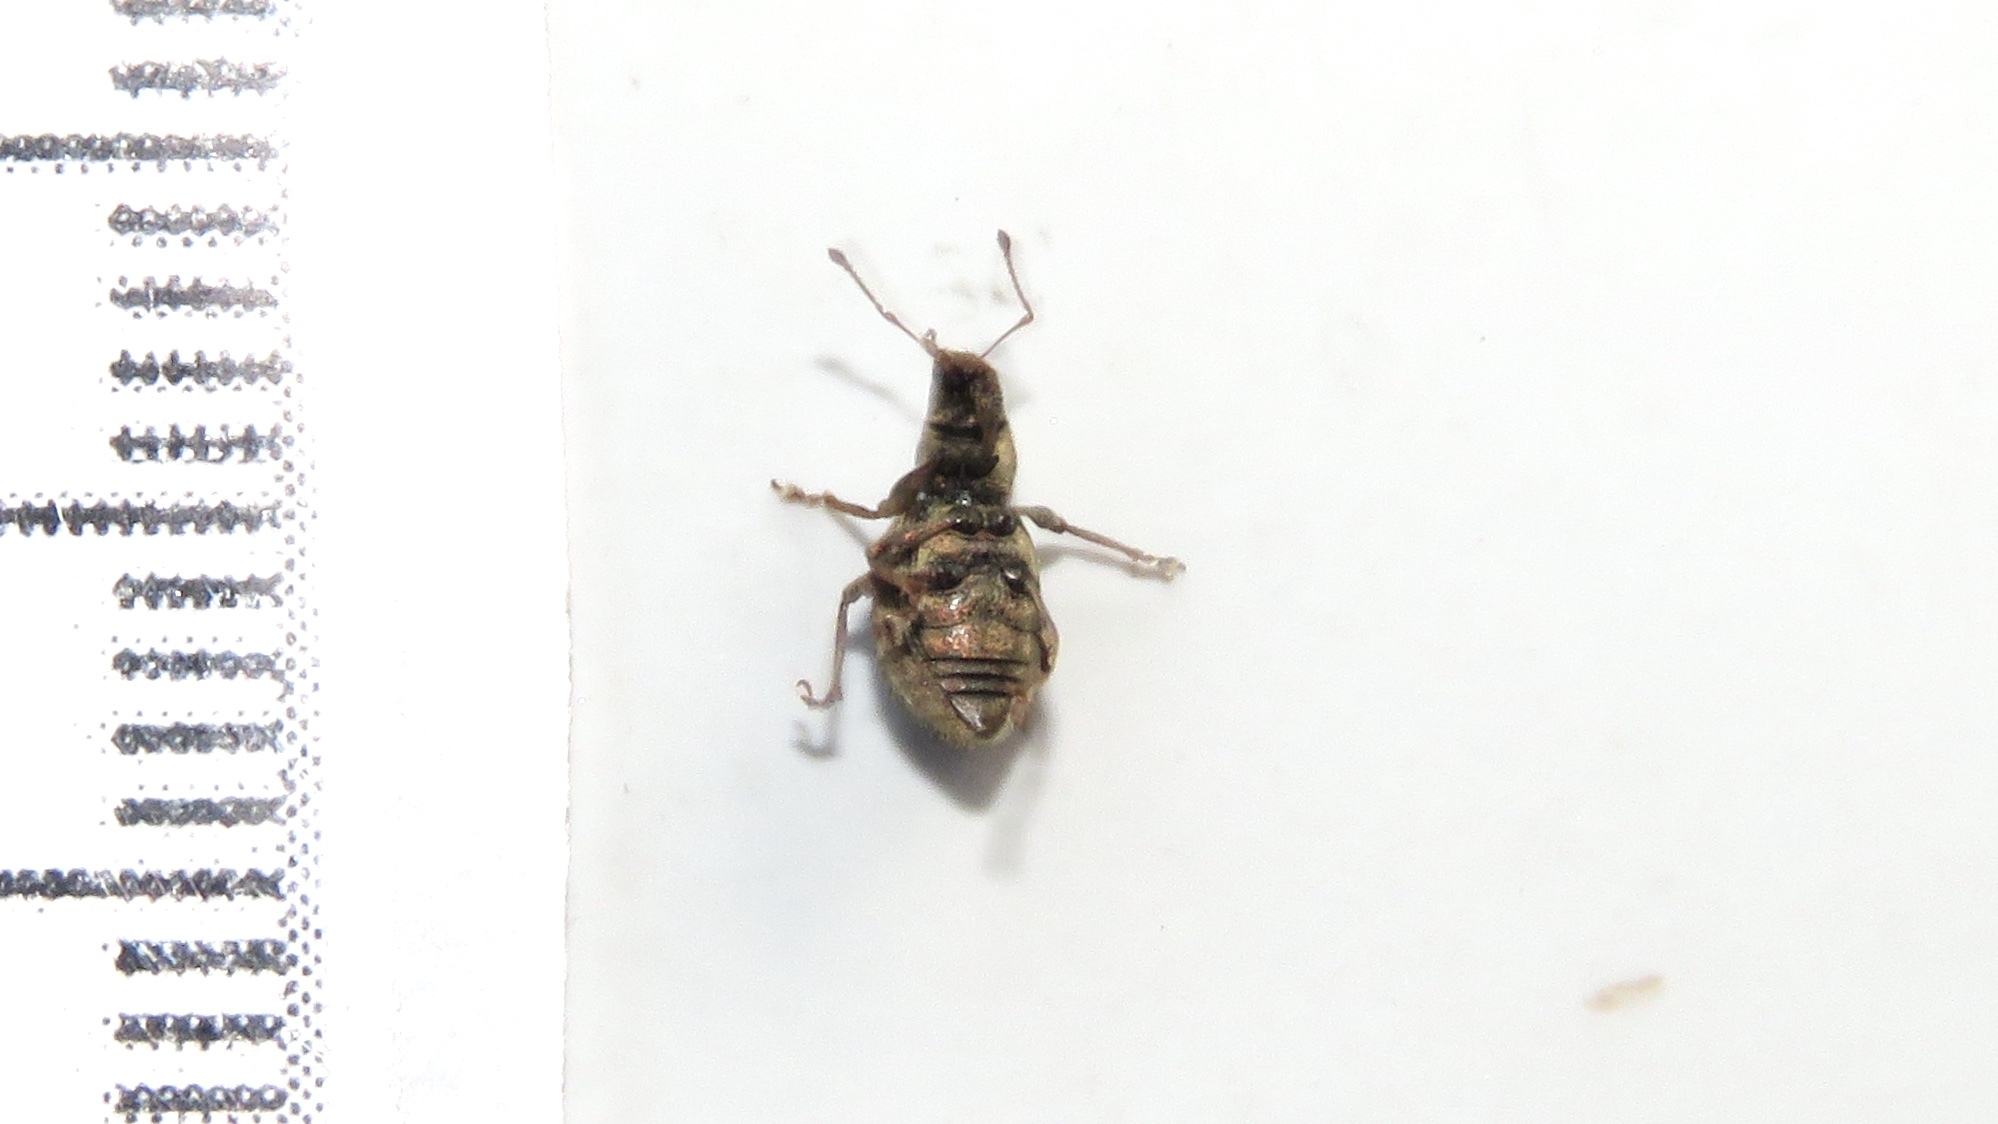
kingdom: Animalia
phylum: Arthropoda
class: Insecta
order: Coleoptera
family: Curculionidae
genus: Sciaphilus
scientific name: Sciaphilus asperatus
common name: Weevil
